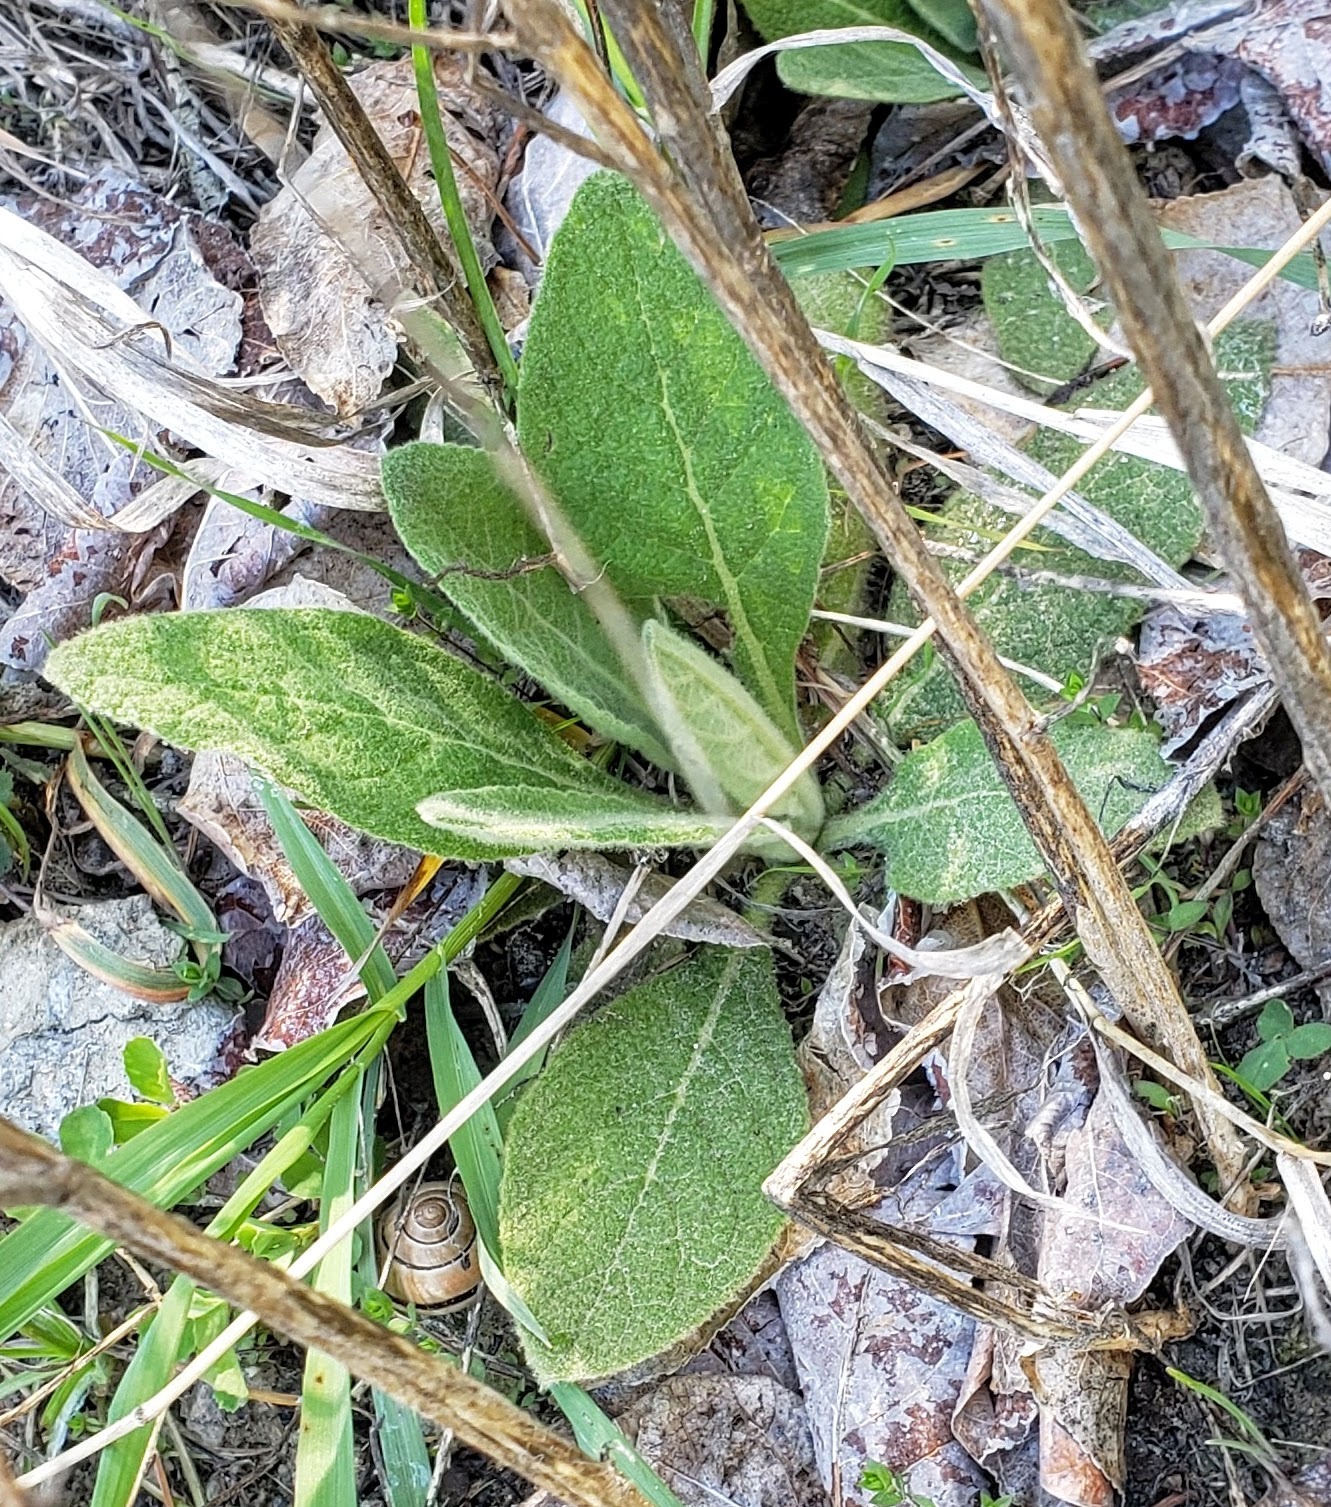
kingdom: Plantae
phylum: Tracheophyta
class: Magnoliopsida
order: Lamiales
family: Scrophulariaceae
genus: Verbascum
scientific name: Verbascum thapsus
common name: Common mullein
